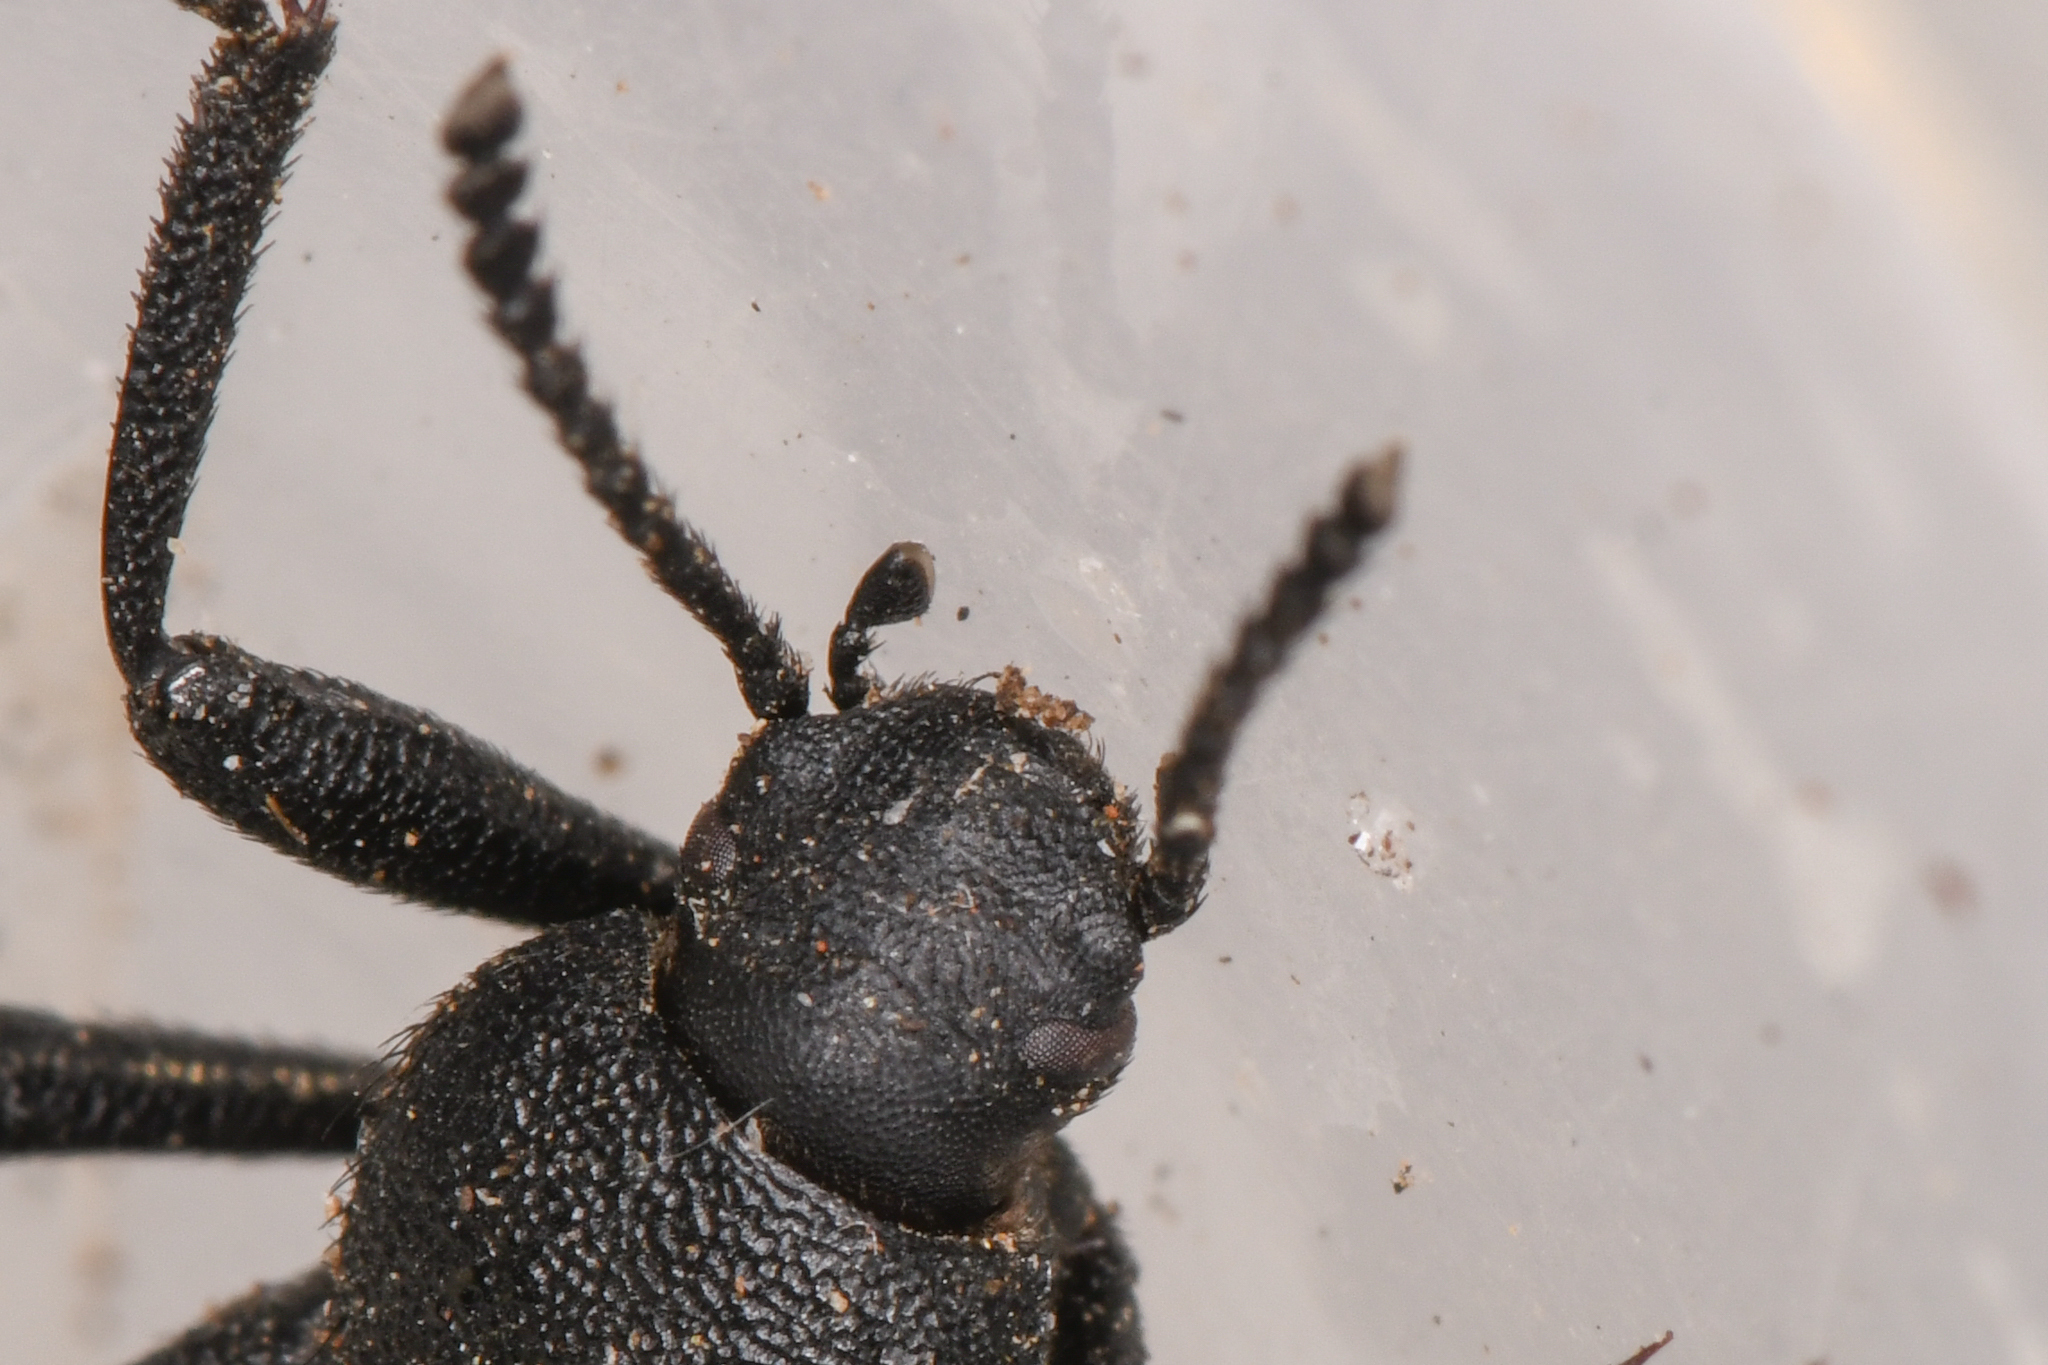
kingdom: Animalia
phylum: Arthropoda
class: Insecta
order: Coleoptera
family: Tenebrionidae
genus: Eleodes
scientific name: Eleodes pilosa
